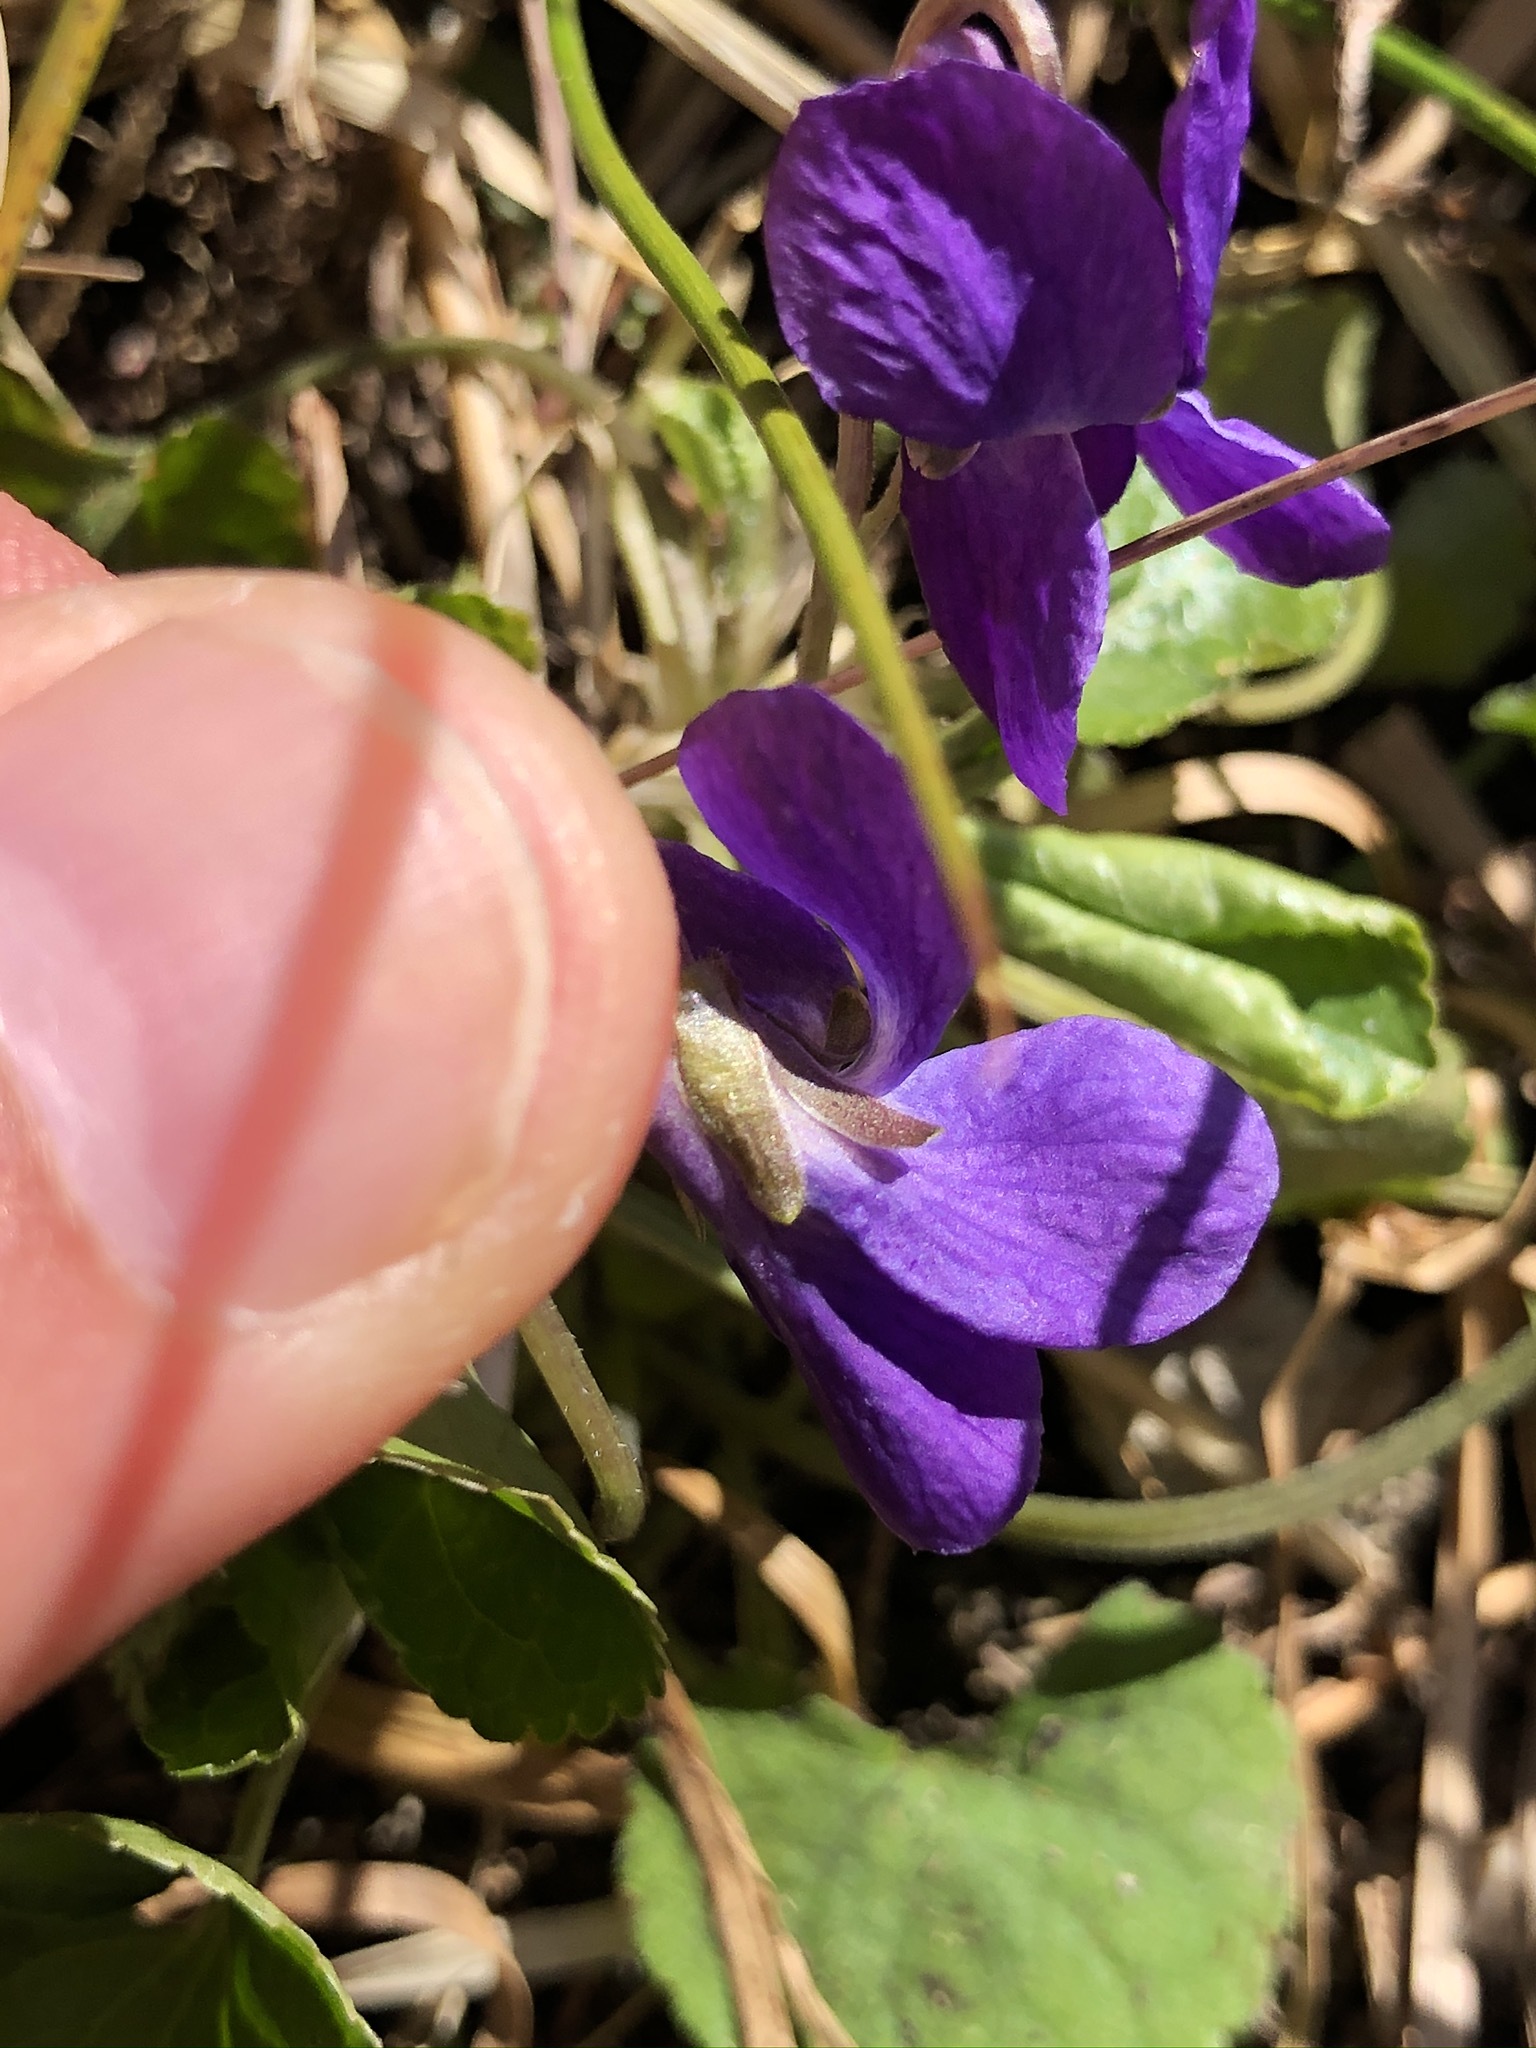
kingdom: Plantae
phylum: Tracheophyta
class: Magnoliopsida
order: Malpighiales
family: Violaceae
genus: Viola
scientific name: Viola odorata
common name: Sweet violet
